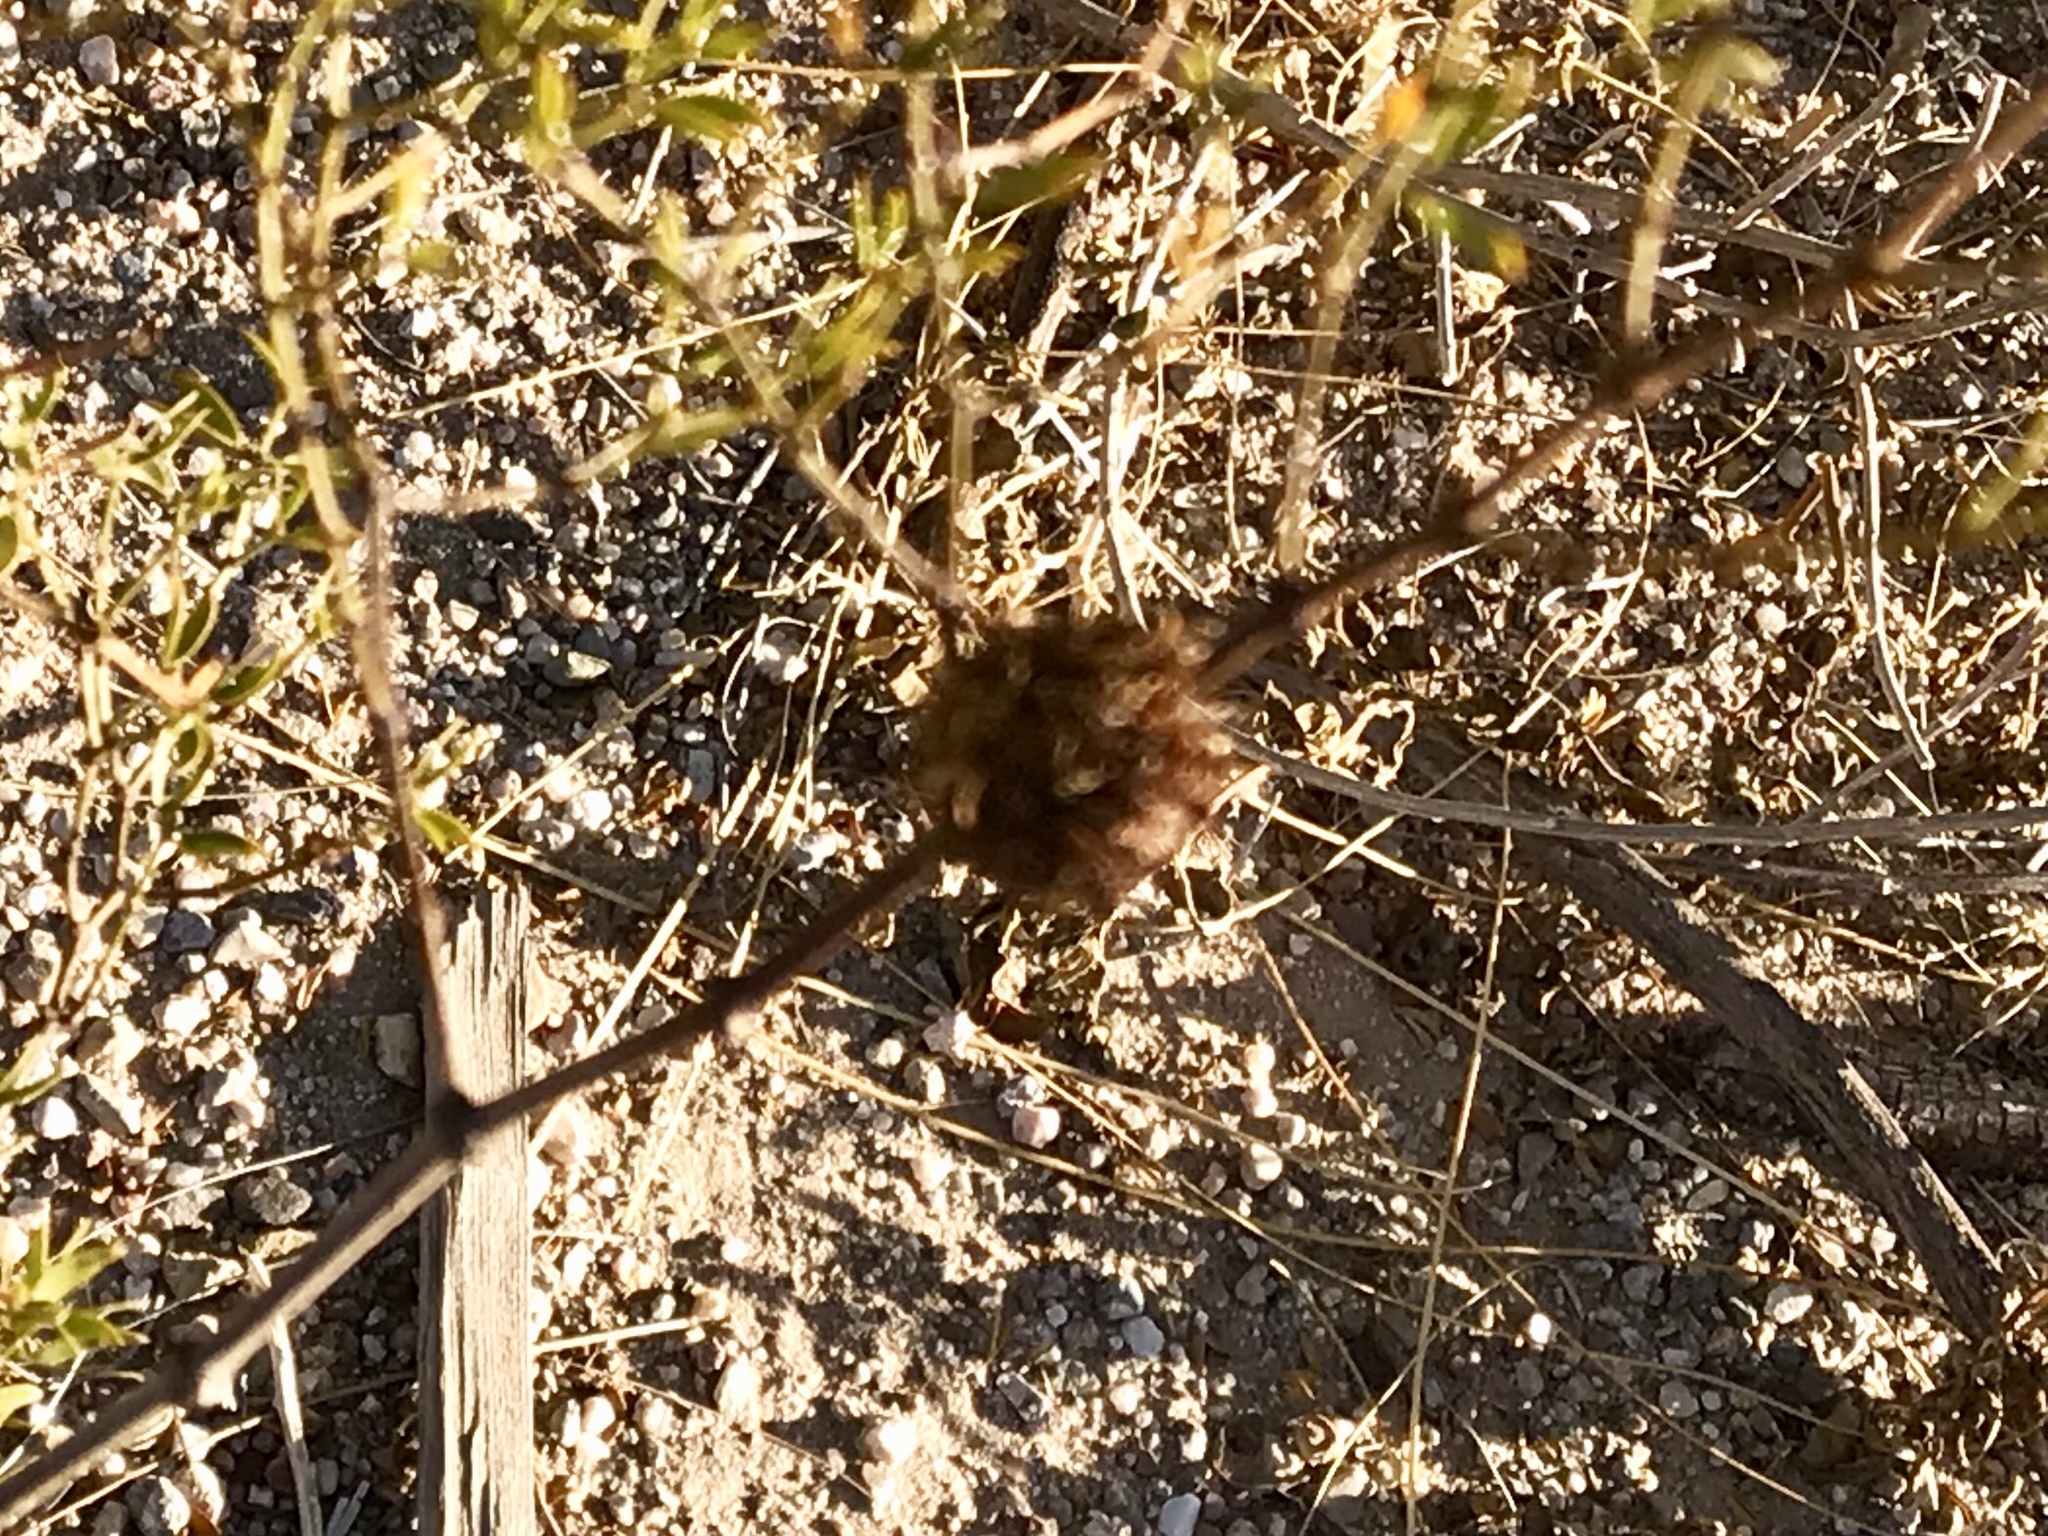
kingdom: Animalia
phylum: Arthropoda
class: Insecta
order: Diptera
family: Cecidomyiidae
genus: Asphondylia
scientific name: Asphondylia auripila
